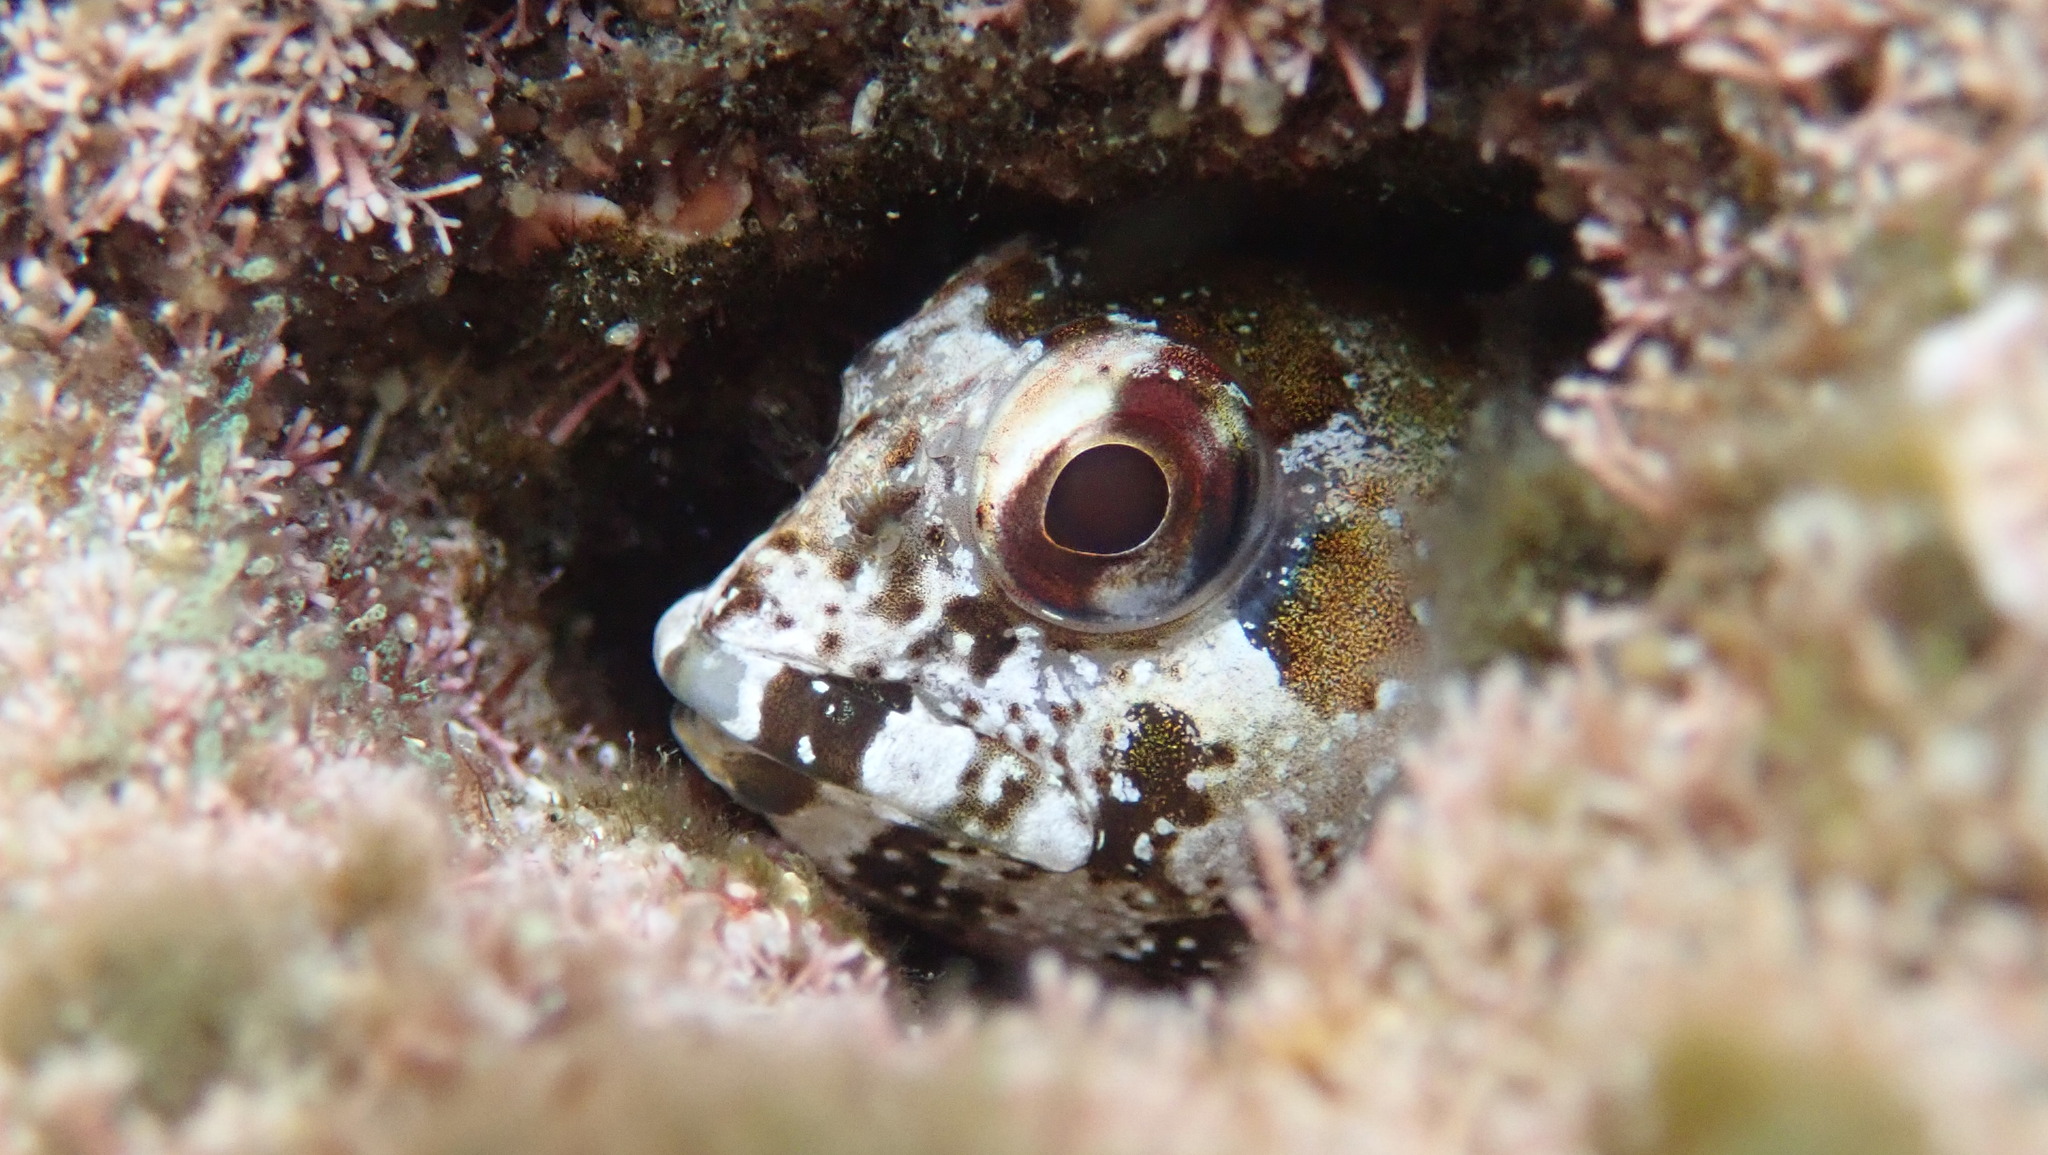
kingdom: Animalia
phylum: Chordata
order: Perciformes
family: Blenniidae
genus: Lipophrys
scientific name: Lipophrys trigloides
